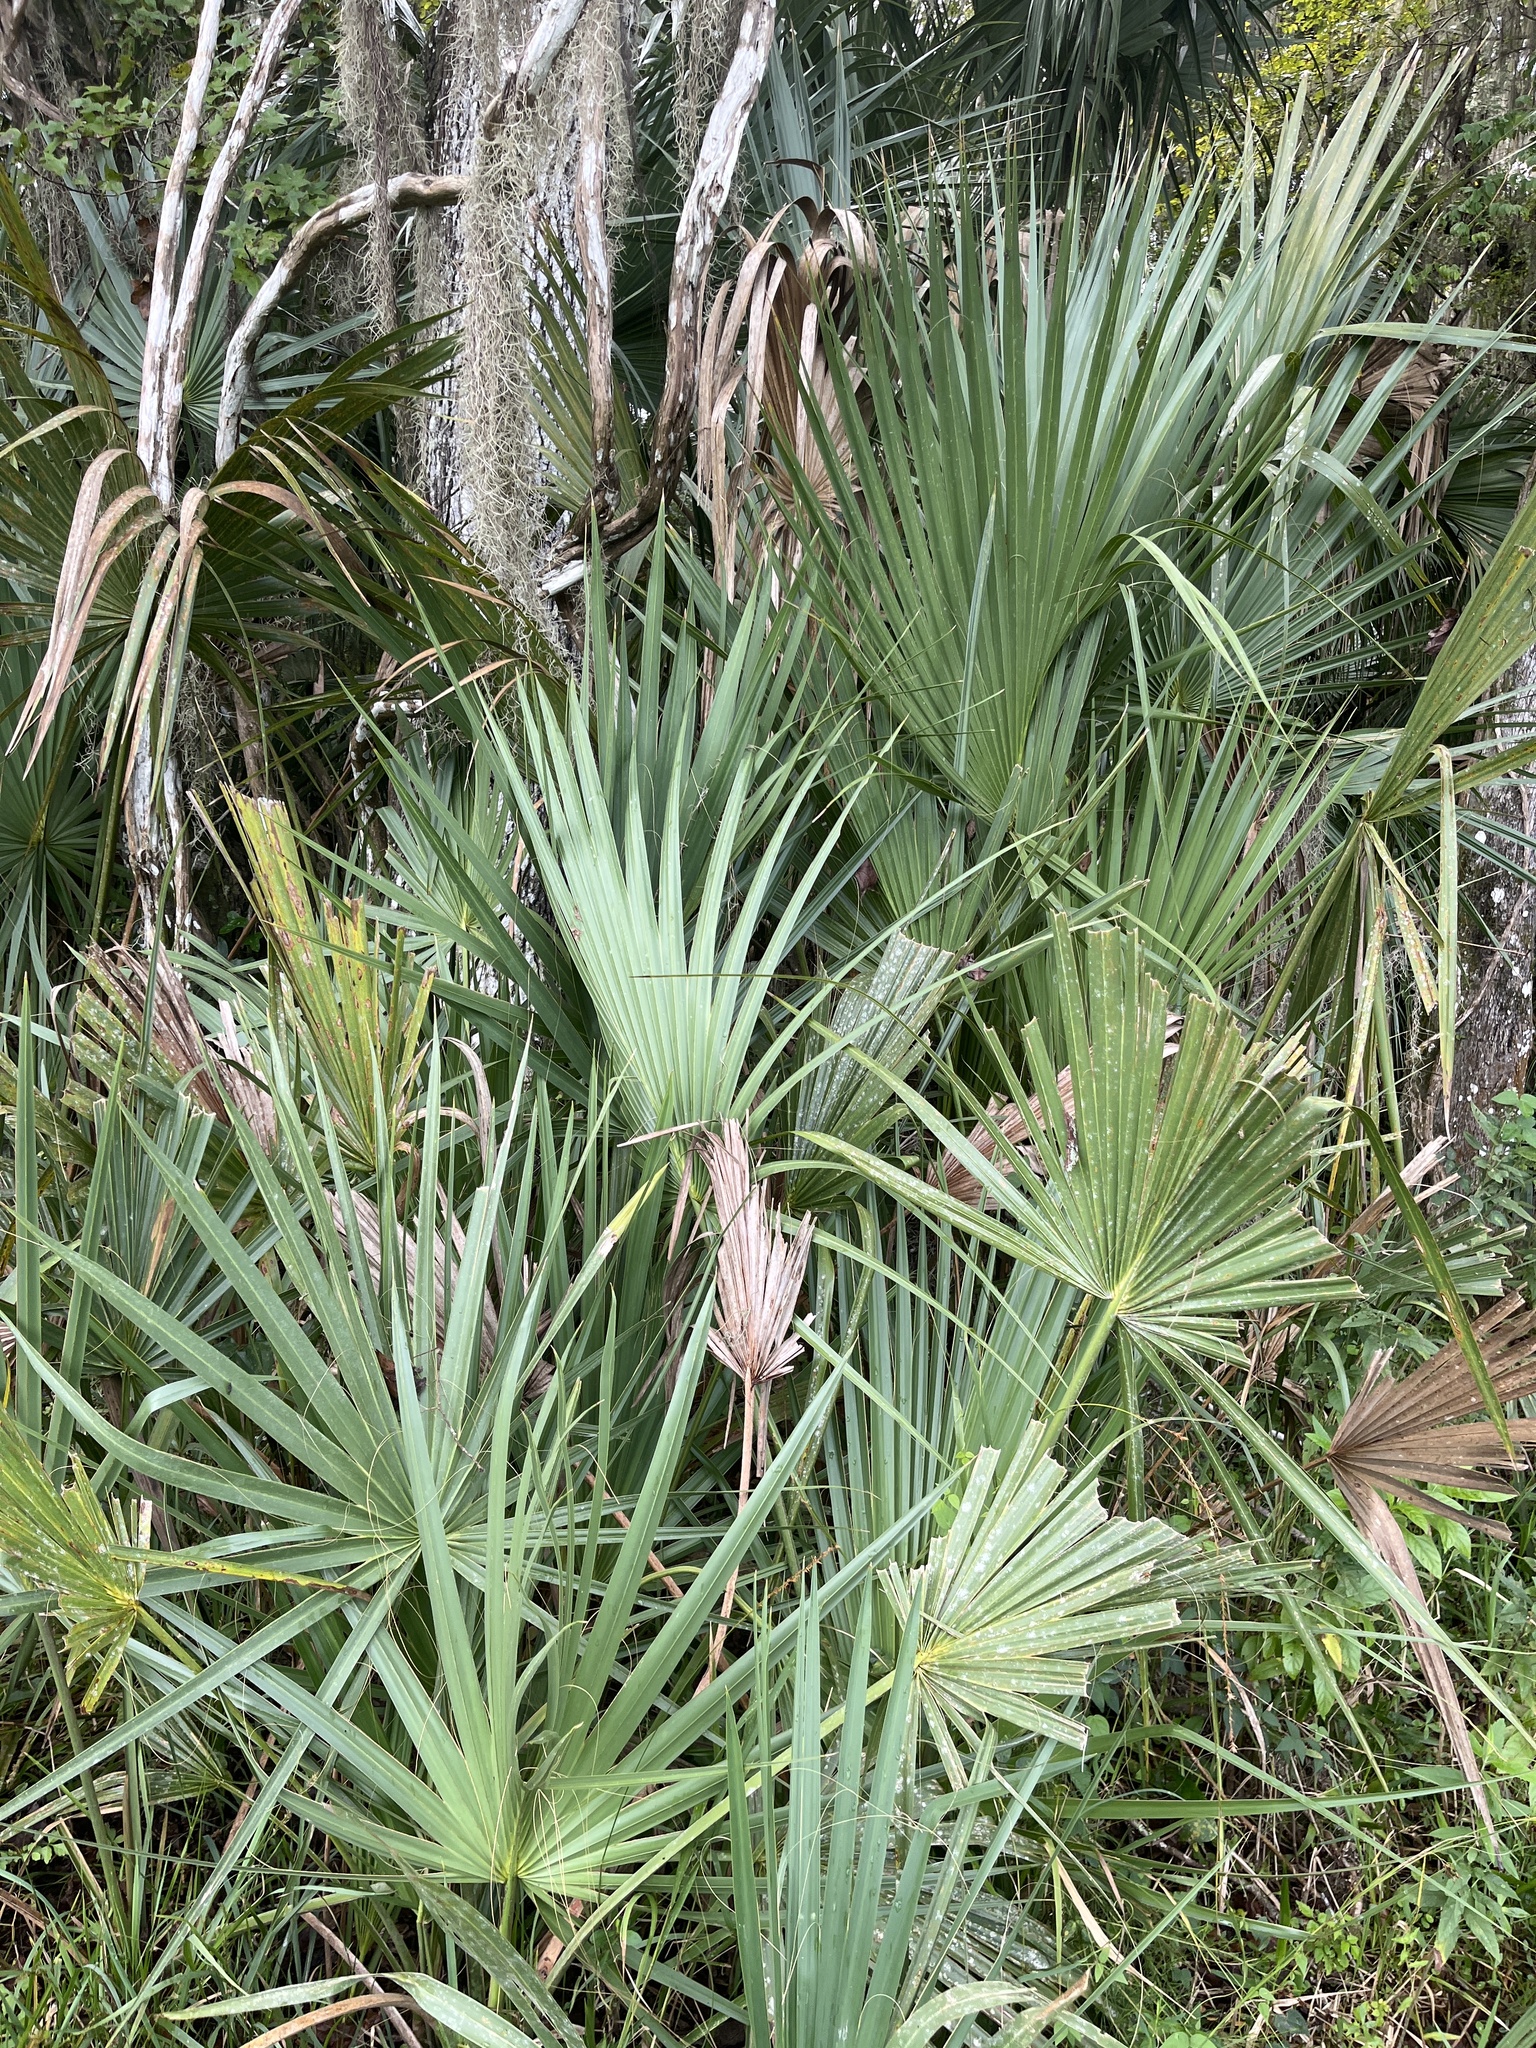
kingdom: Plantae
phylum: Tracheophyta
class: Liliopsida
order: Arecales
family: Arecaceae
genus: Sabal
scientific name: Sabal palmetto
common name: Blue palmetto
